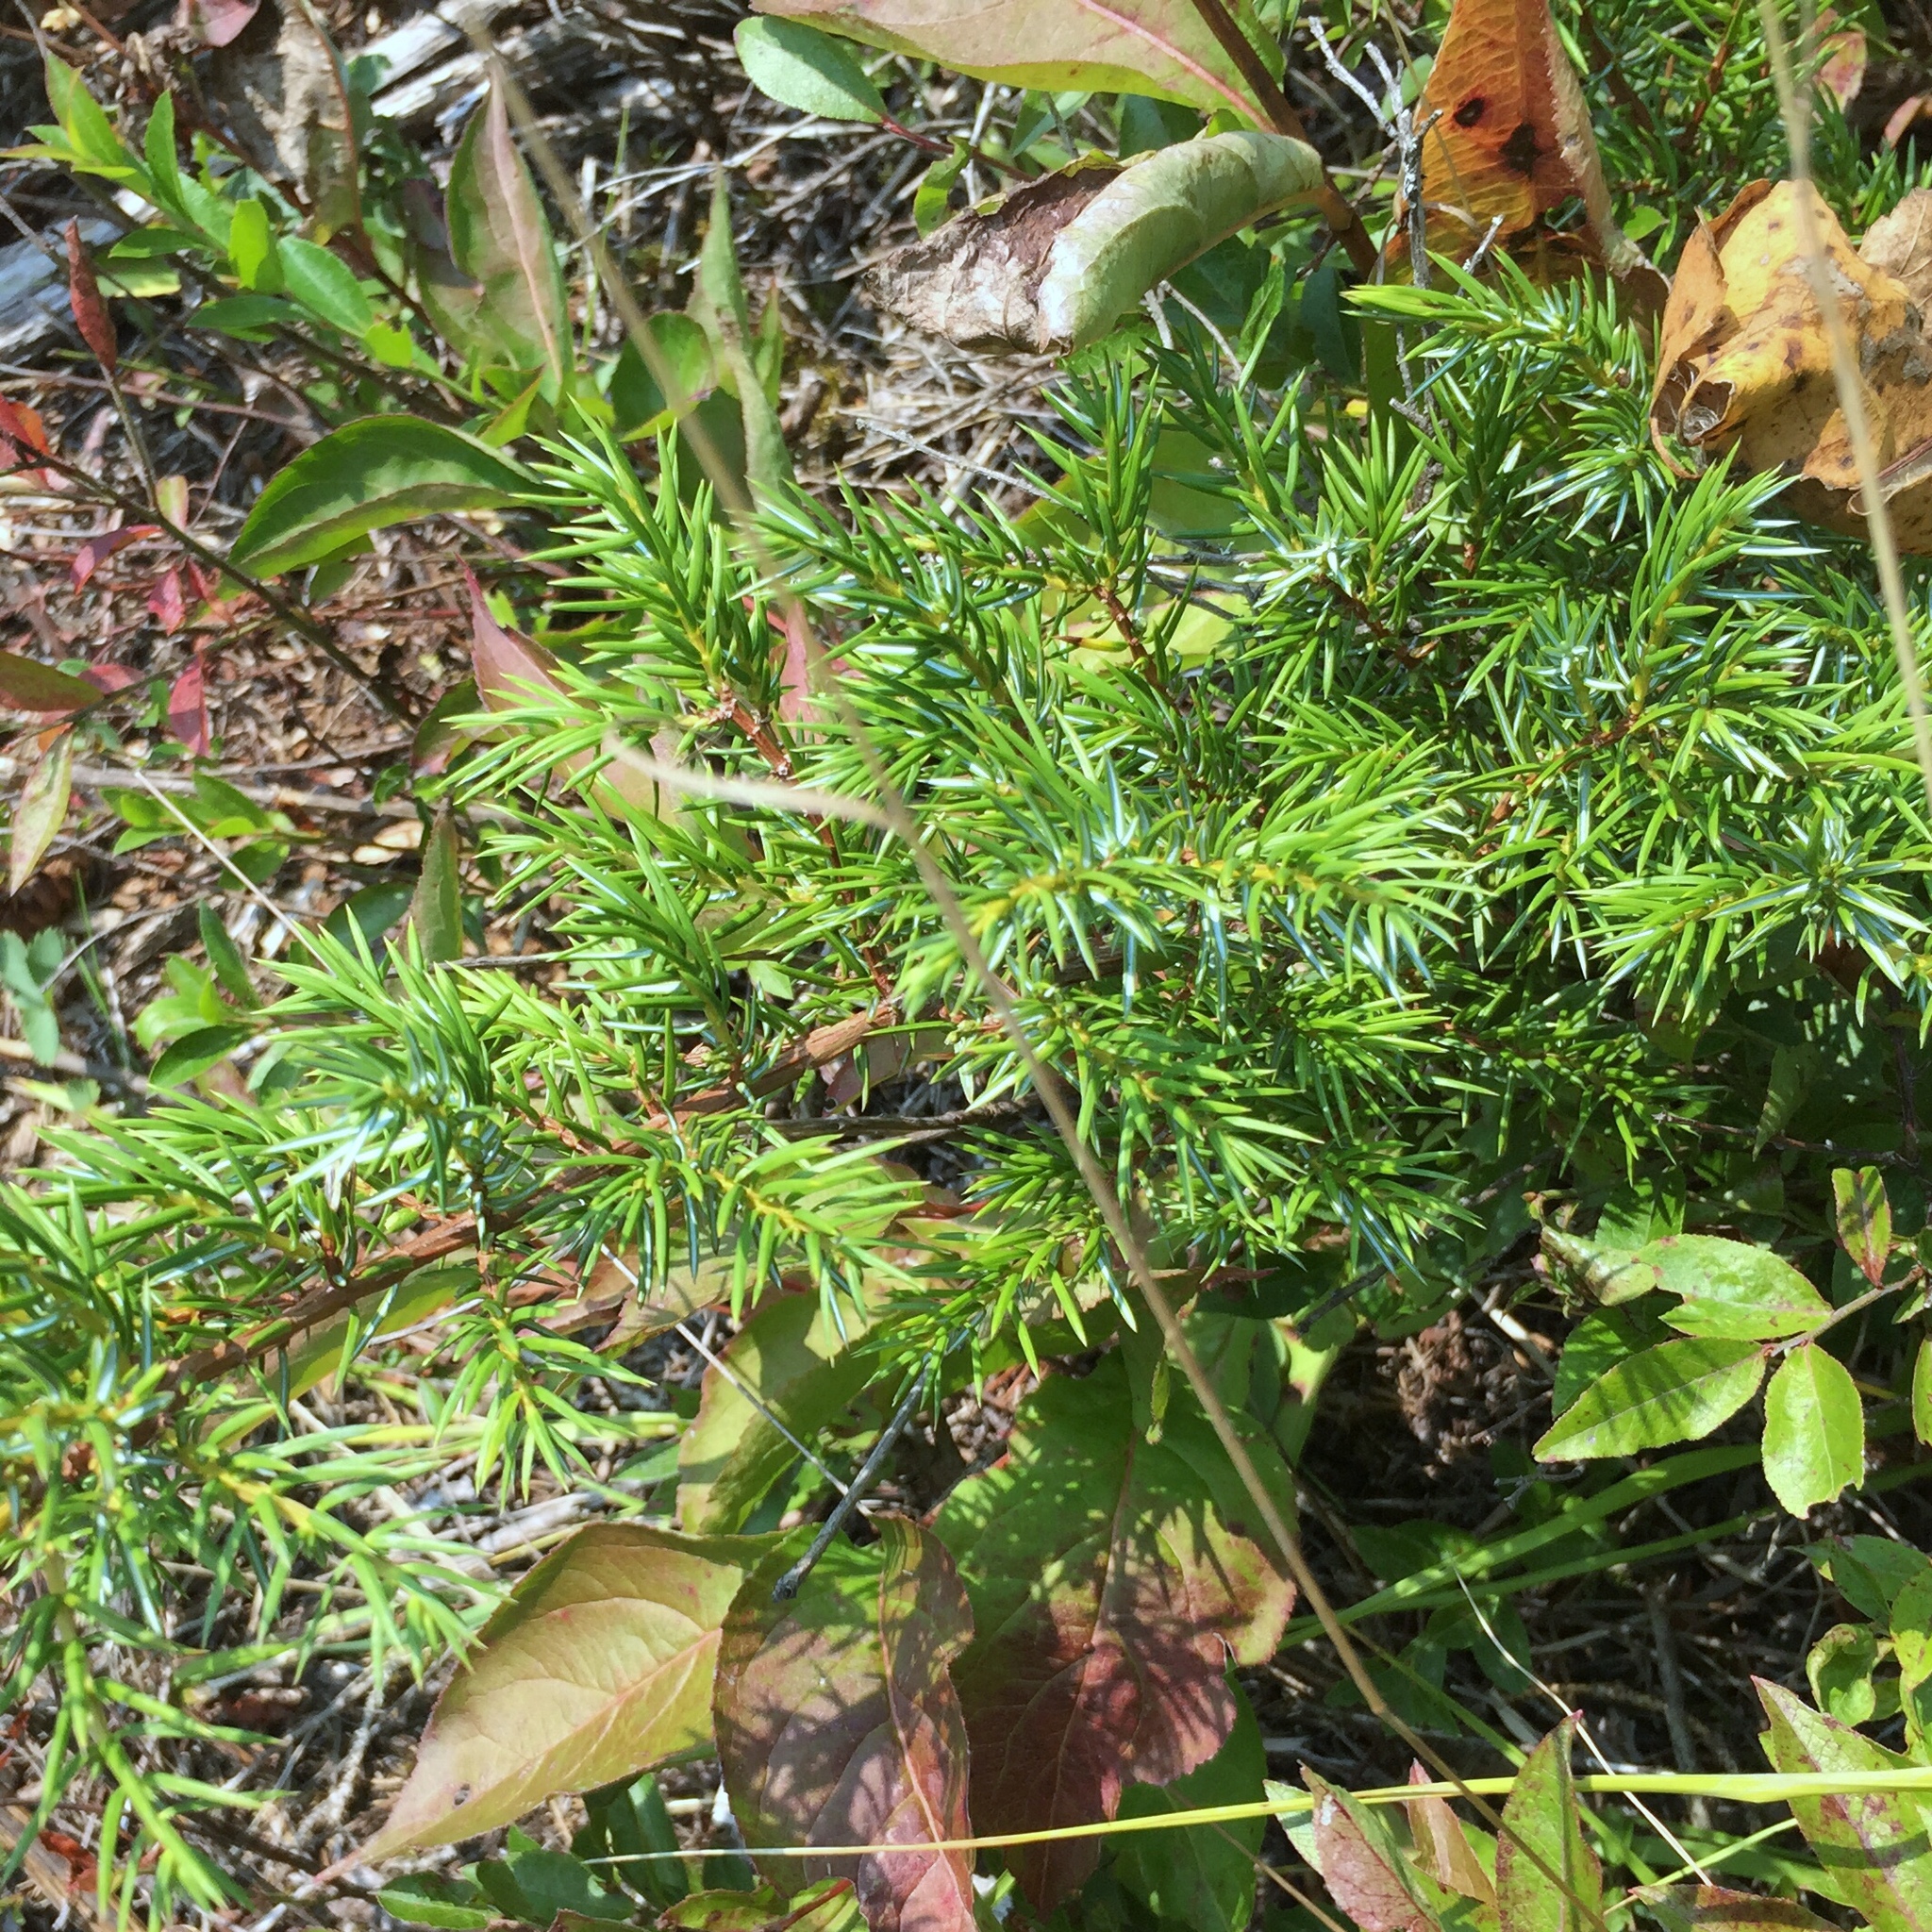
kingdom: Plantae
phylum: Tracheophyta
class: Pinopsida
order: Pinales
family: Cupressaceae
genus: Juniperus
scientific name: Juniperus communis
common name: Common juniper
